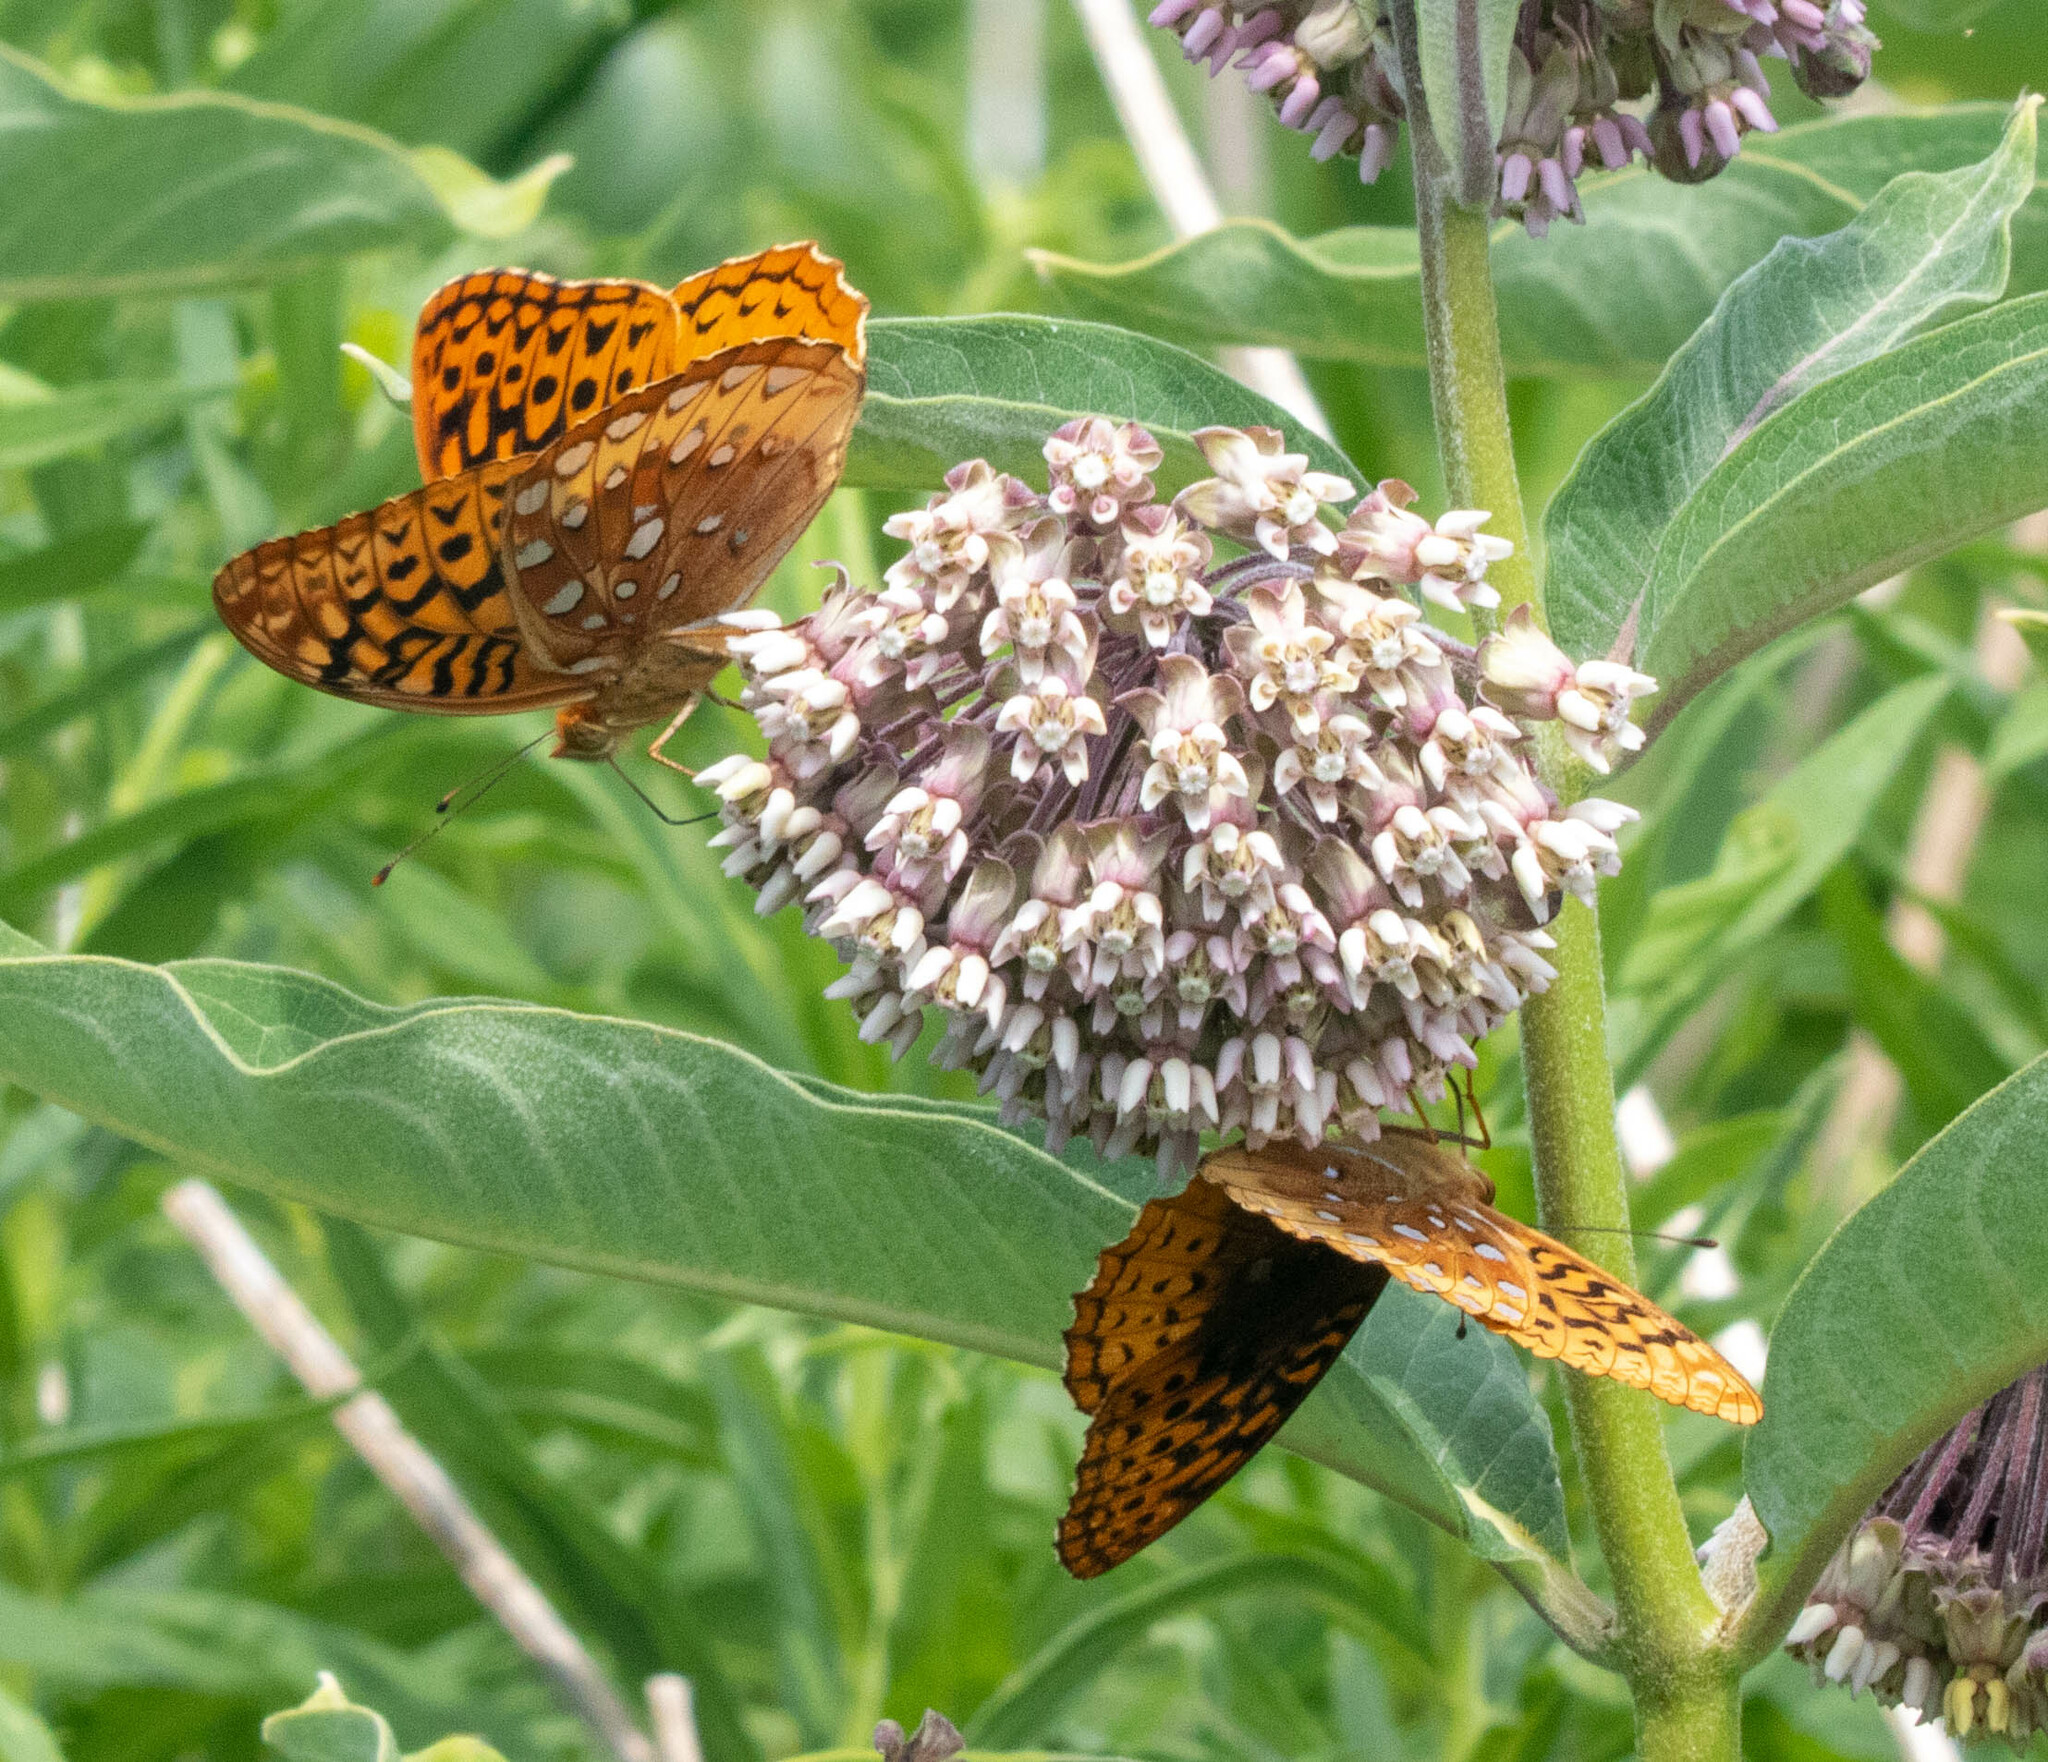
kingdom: Animalia
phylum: Arthropoda
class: Insecta
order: Lepidoptera
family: Nymphalidae
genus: Speyeria
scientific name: Speyeria cybele
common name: Great spangled fritillary
